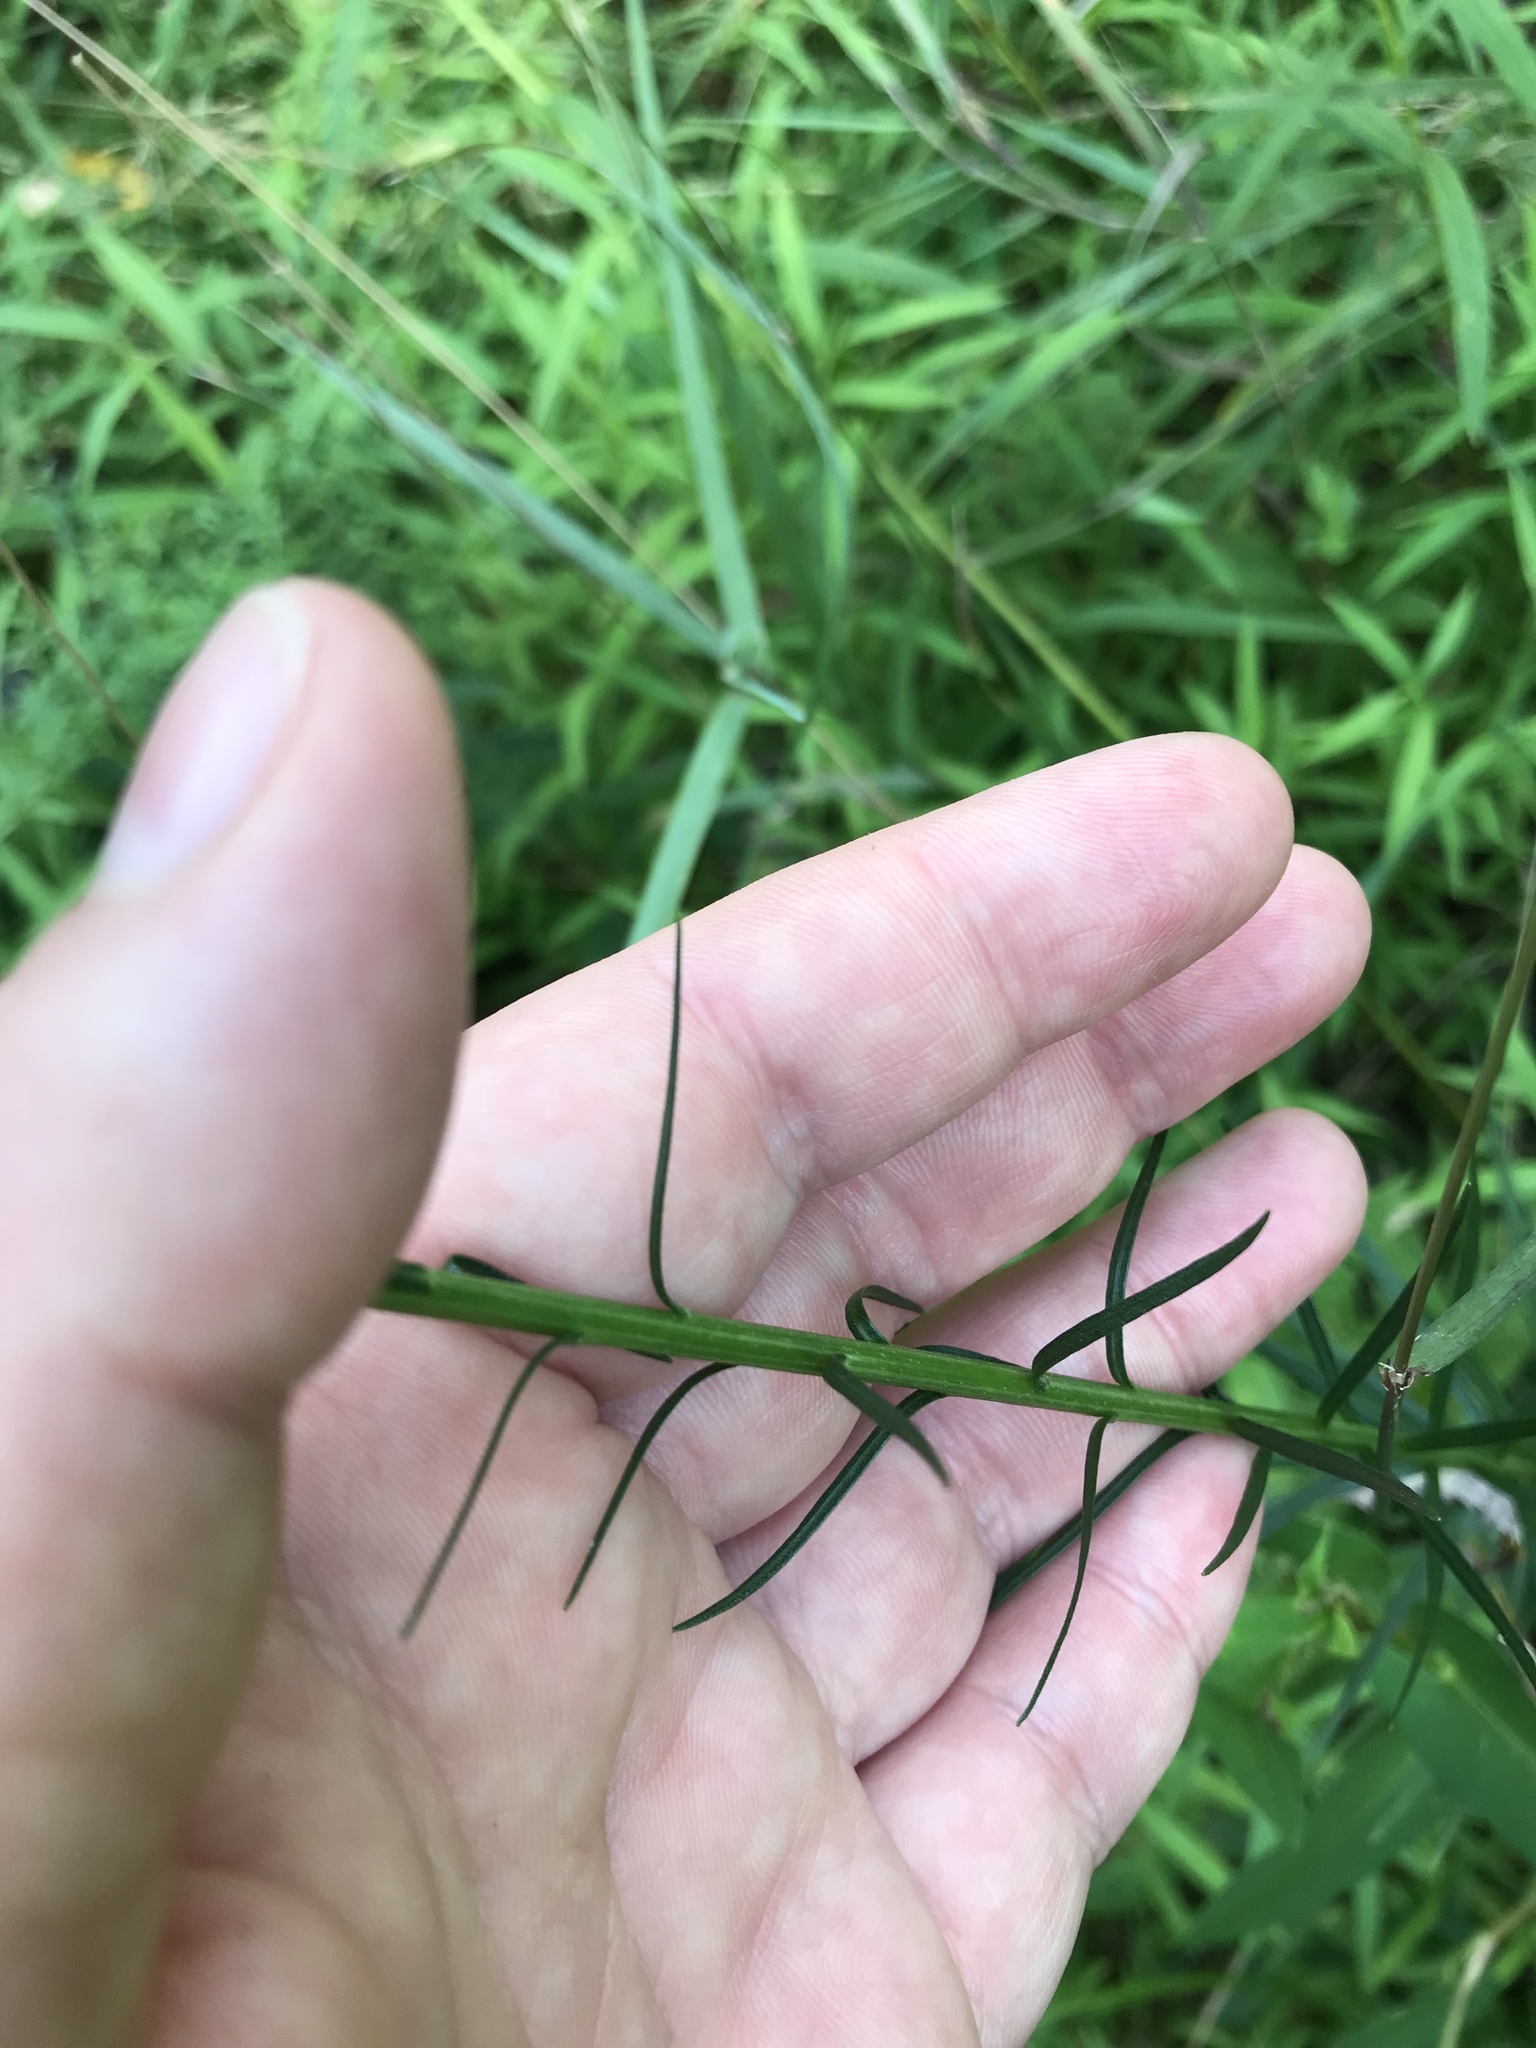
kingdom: Plantae
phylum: Tracheophyta
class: Magnoliopsida
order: Asterales
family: Asteraceae
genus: Liatris
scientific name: Liatris spicata
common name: Florist gayfeather
